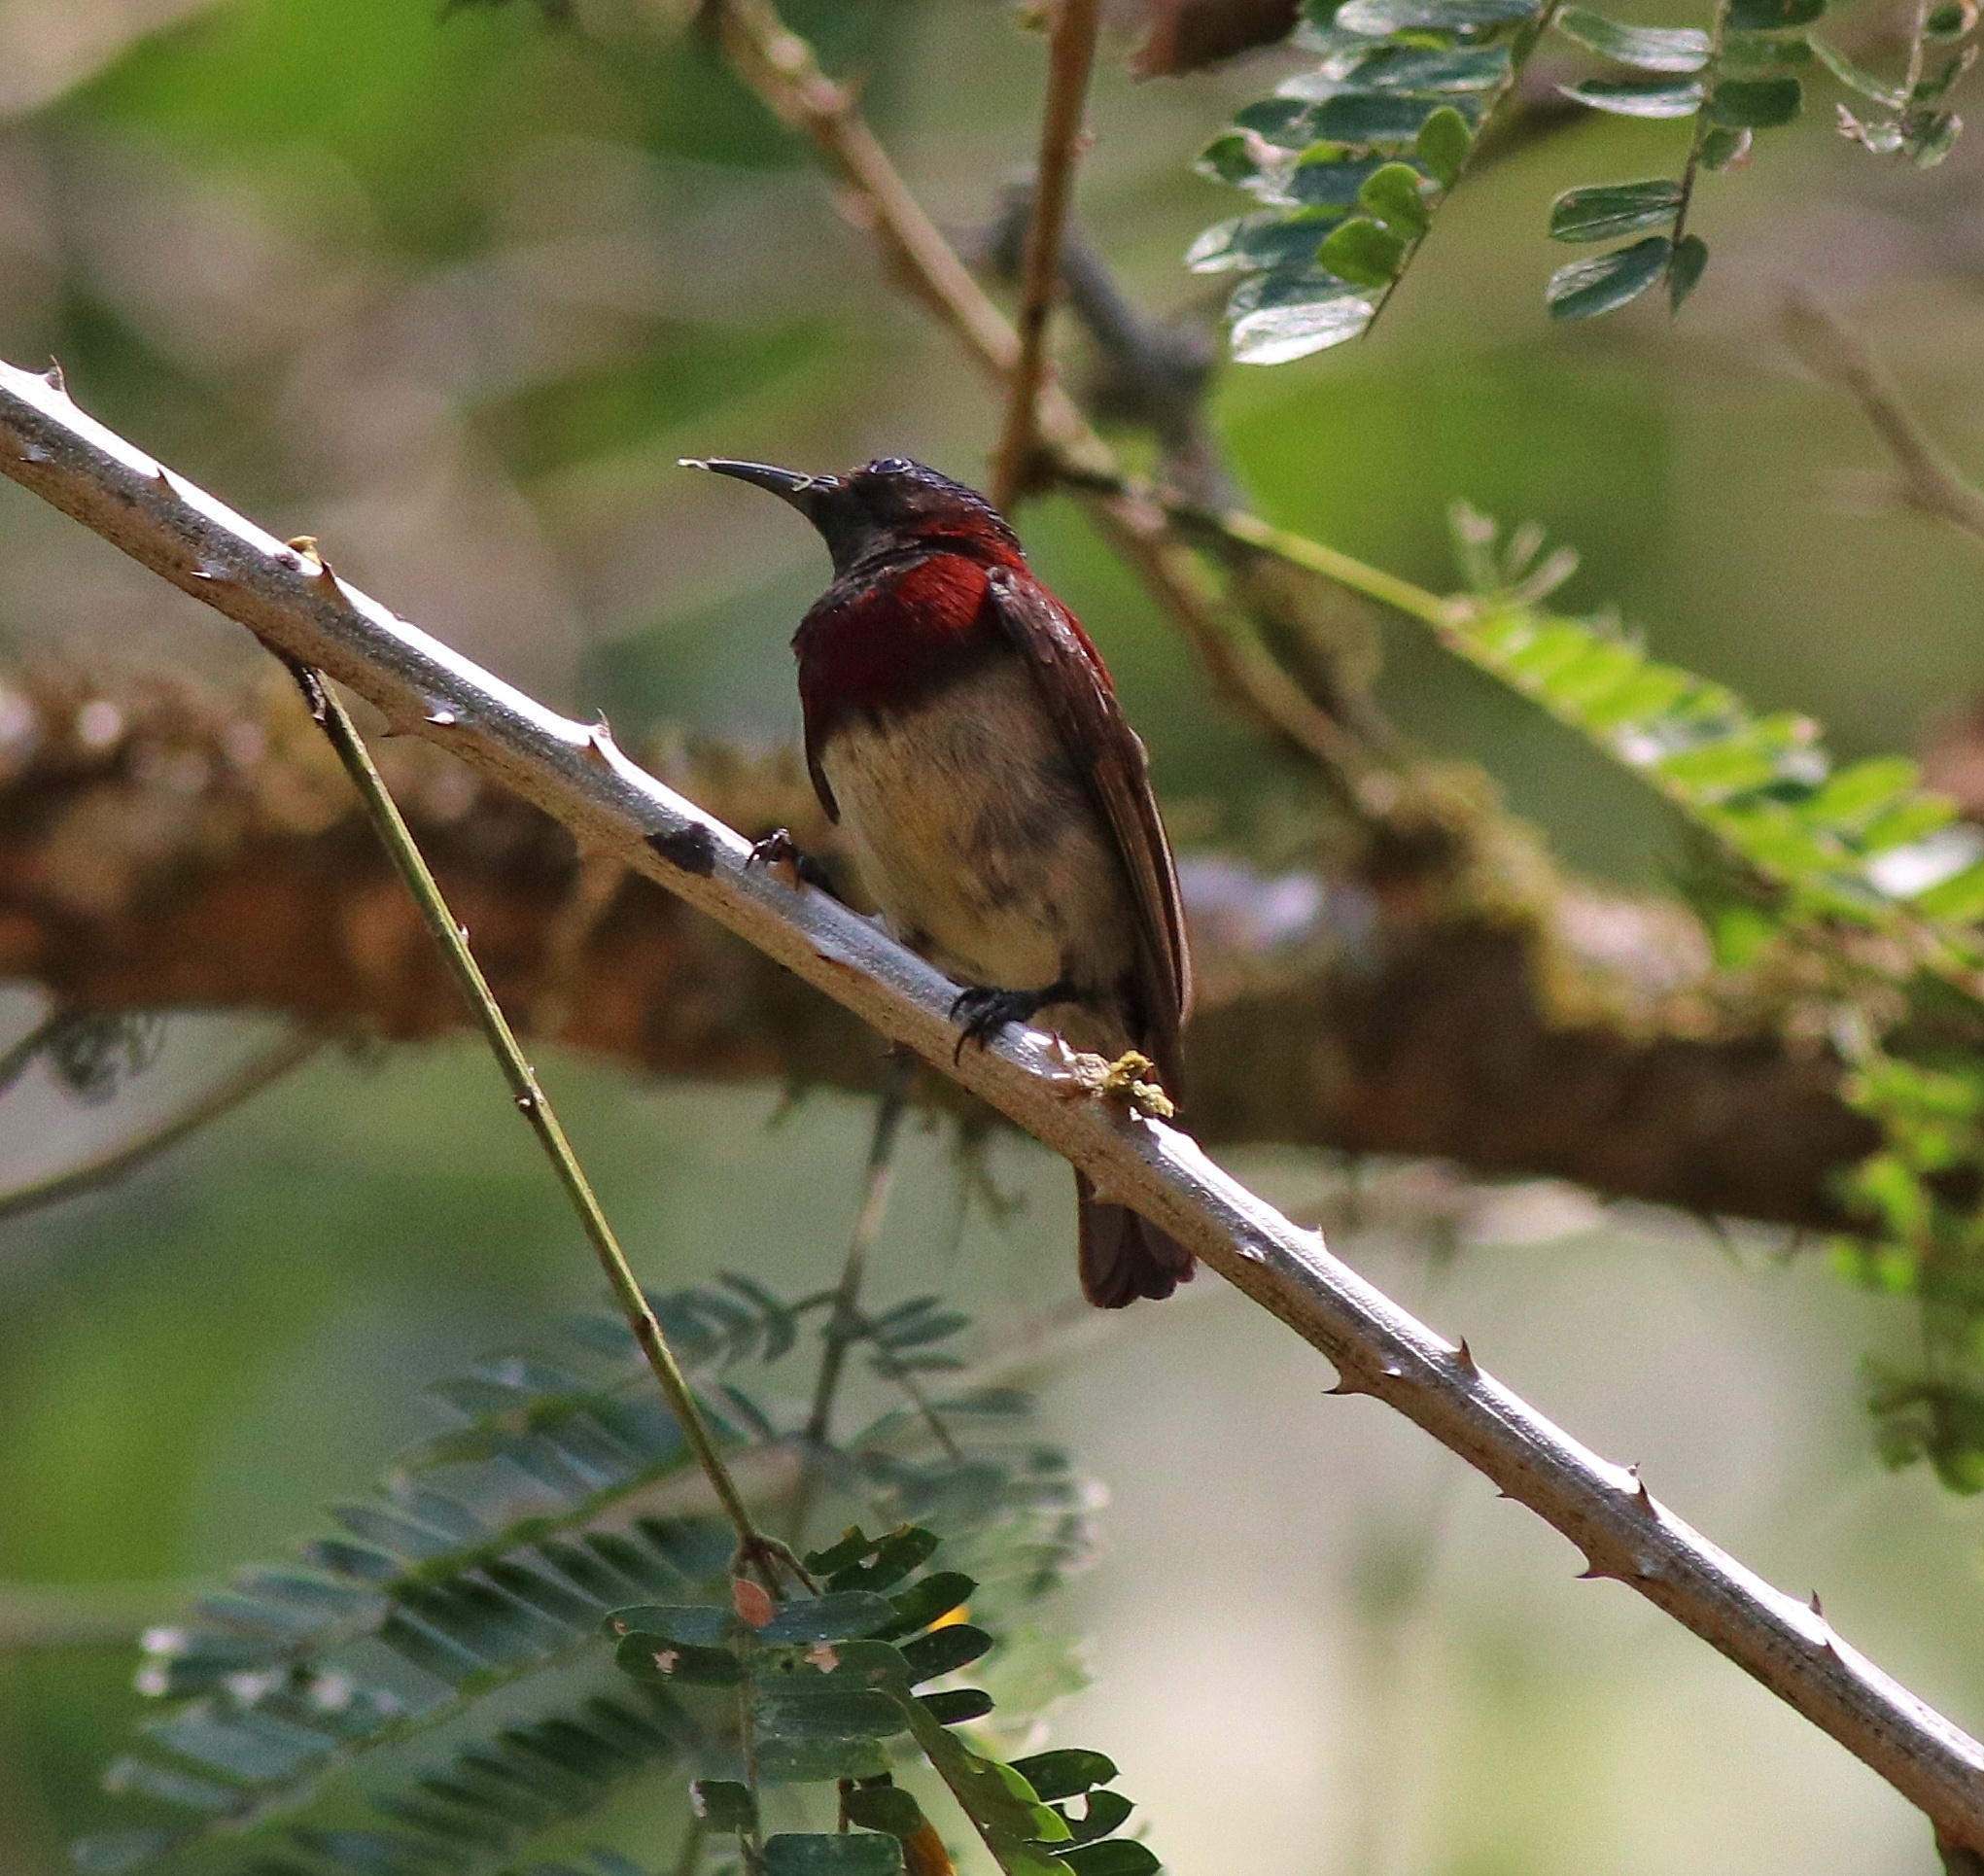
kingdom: Animalia
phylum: Chordata
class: Aves
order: Passeriformes
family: Nectariniidae
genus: Leptocoma
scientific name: Leptocoma minima
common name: Crimson-backed sunbird
